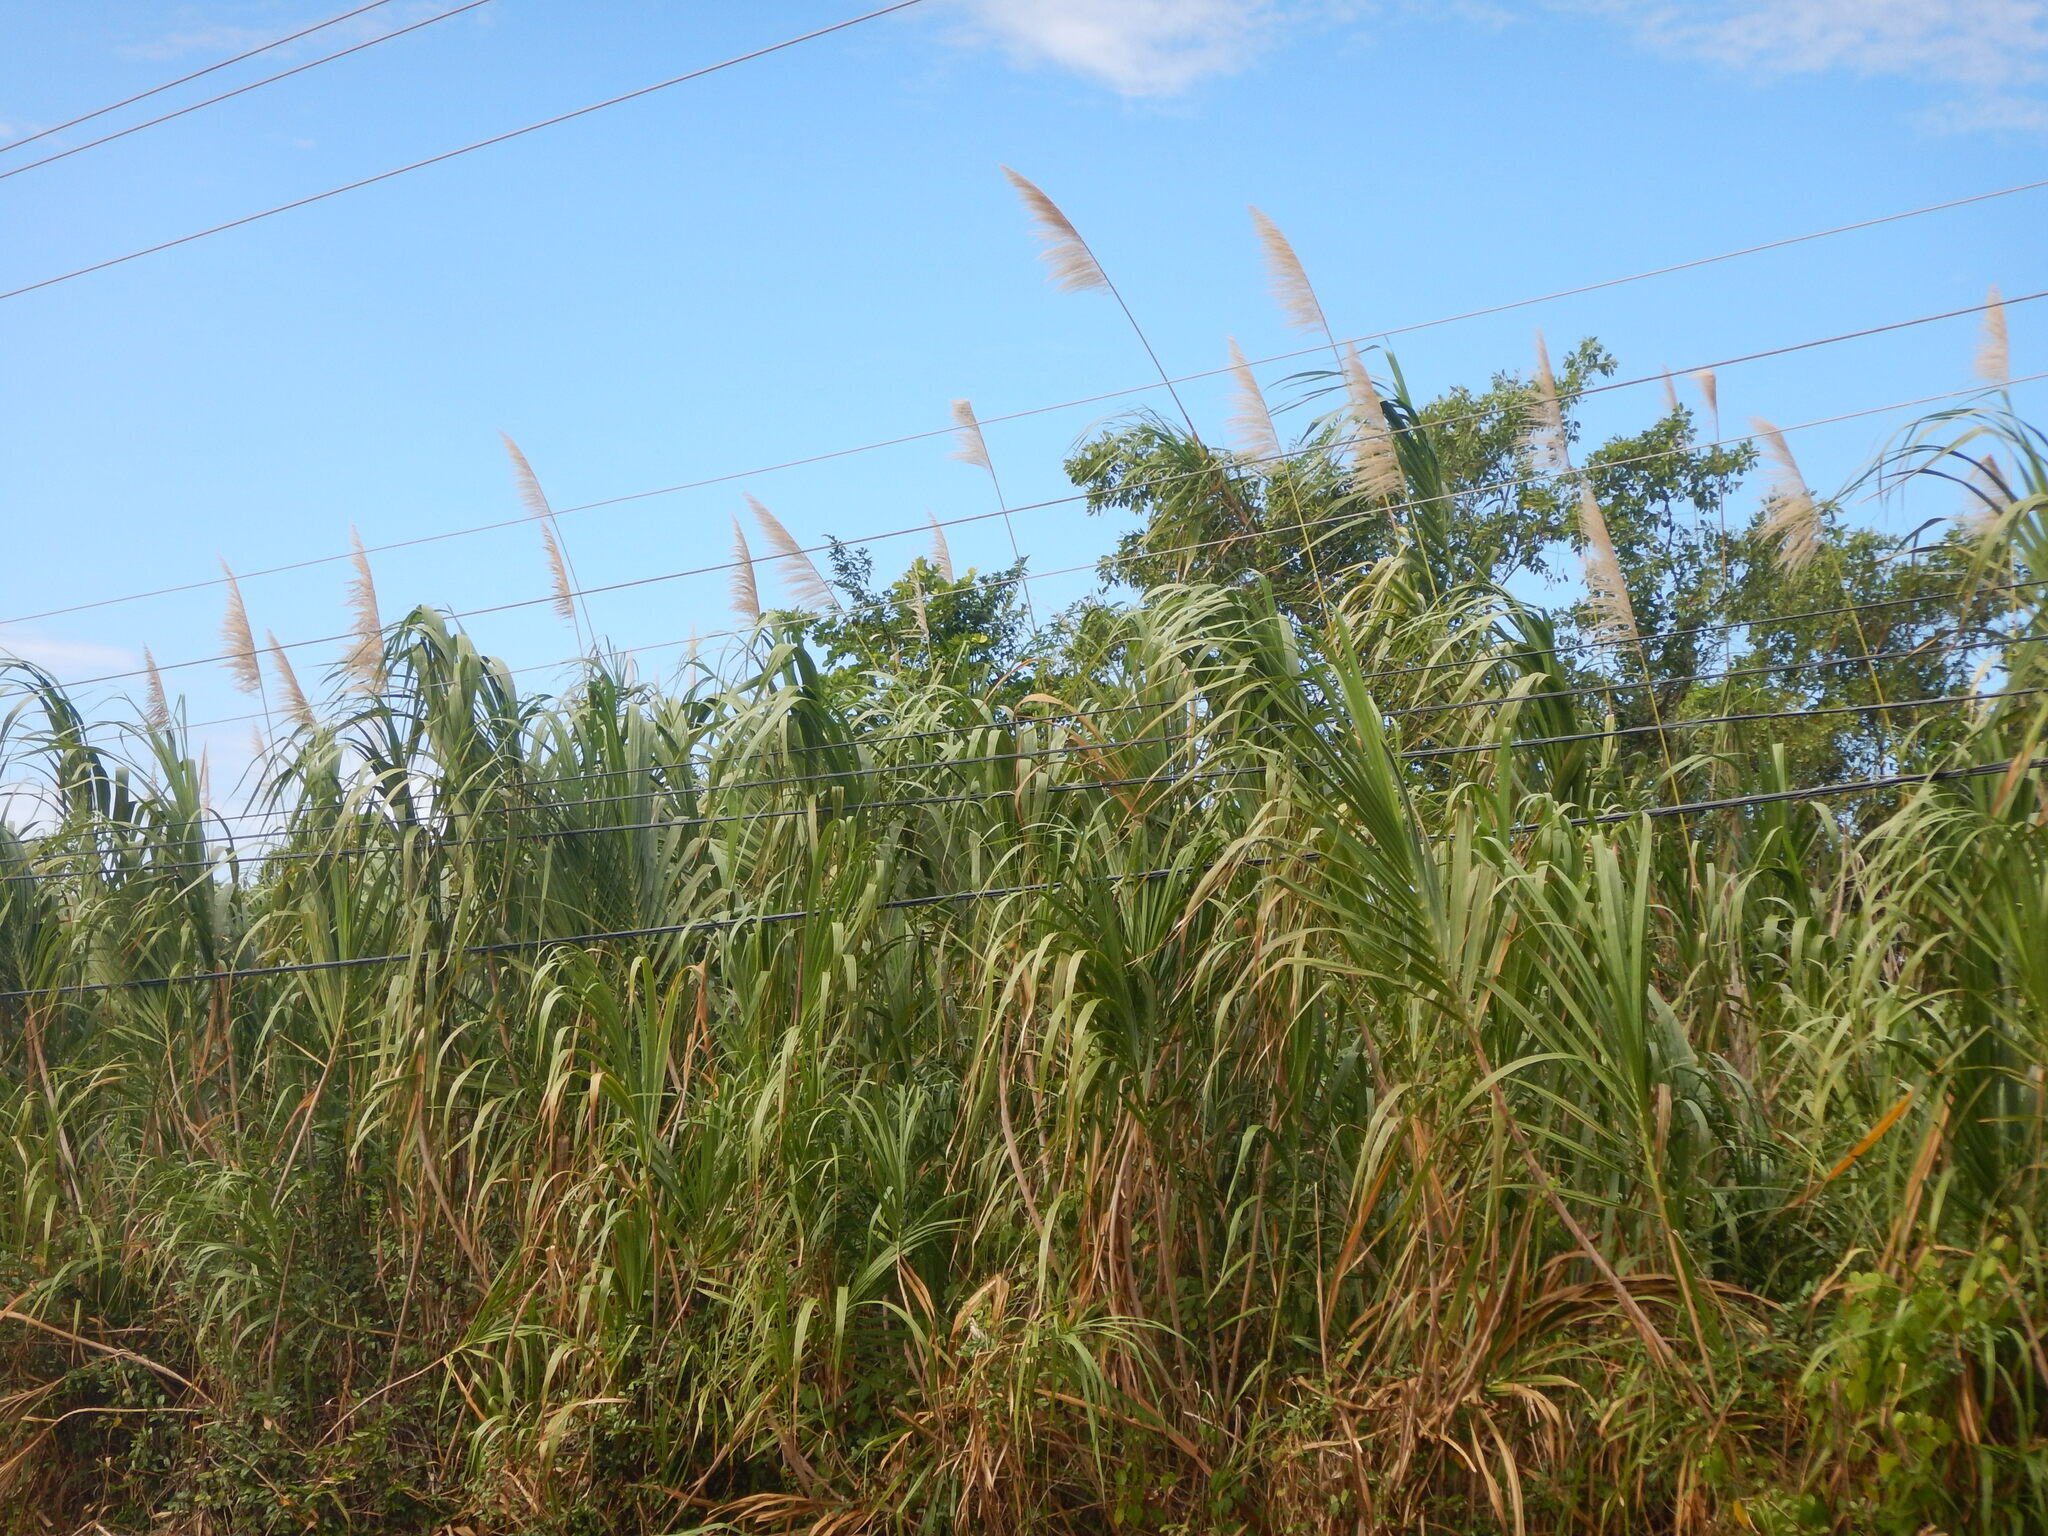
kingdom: Plantae
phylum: Tracheophyta
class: Liliopsida
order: Poales
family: Poaceae
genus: Gynerium
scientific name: Gynerium sagittatum
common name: Wild cane
